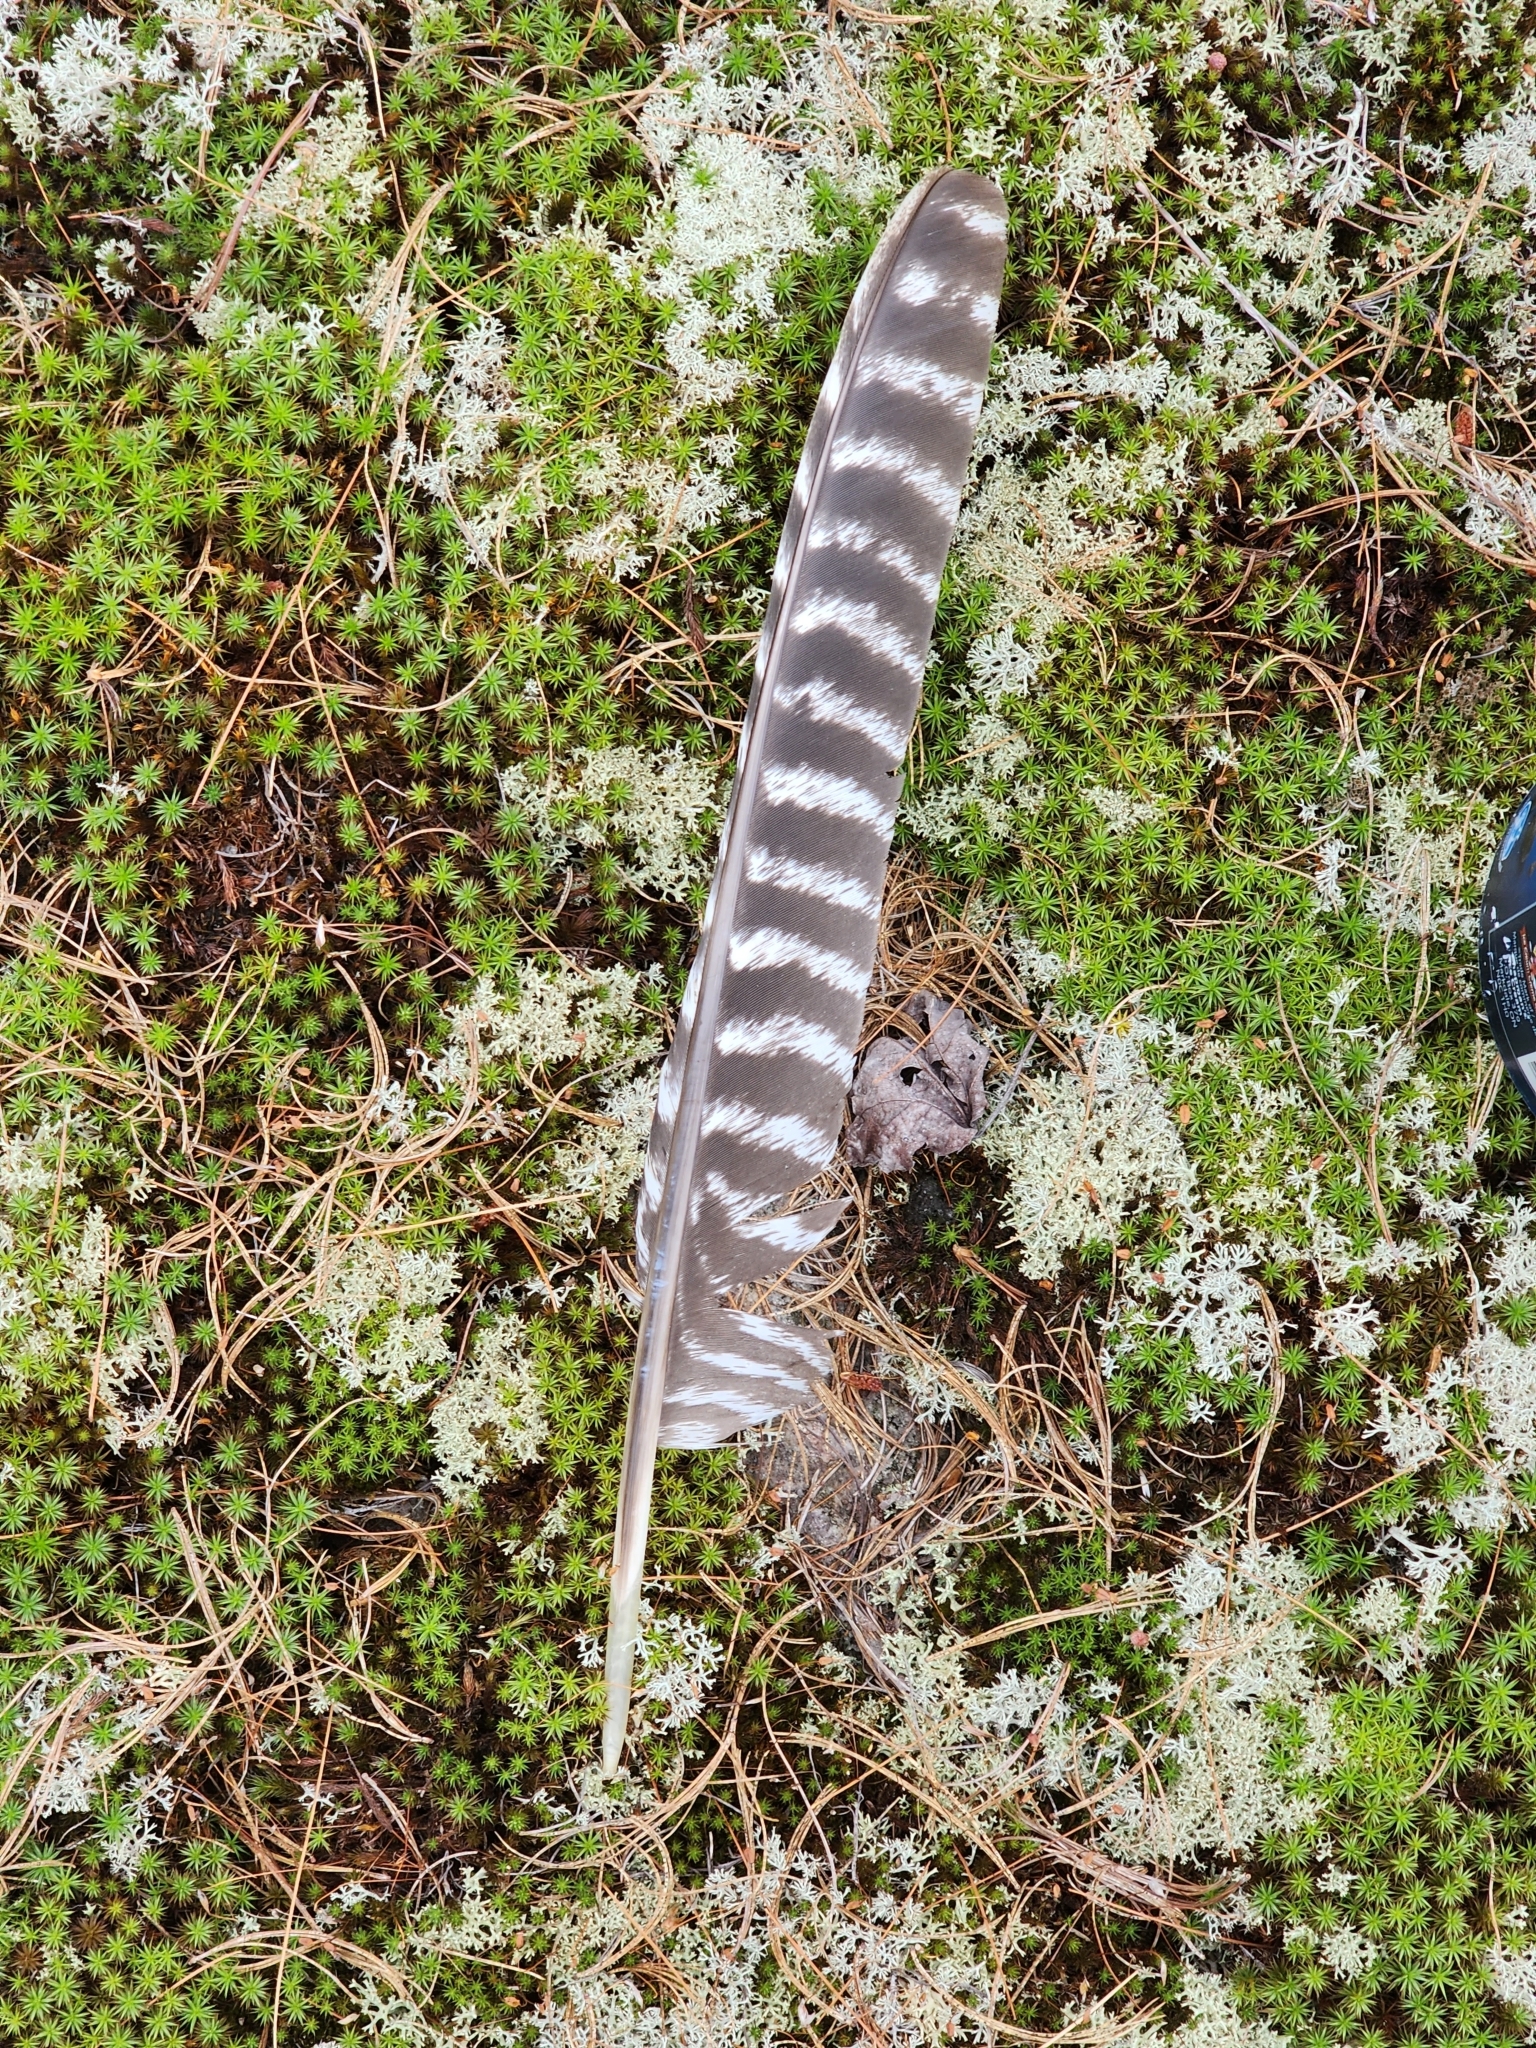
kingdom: Animalia
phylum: Chordata
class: Aves
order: Galliformes
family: Phasianidae
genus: Meleagris
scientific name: Meleagris gallopavo
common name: Wild turkey
